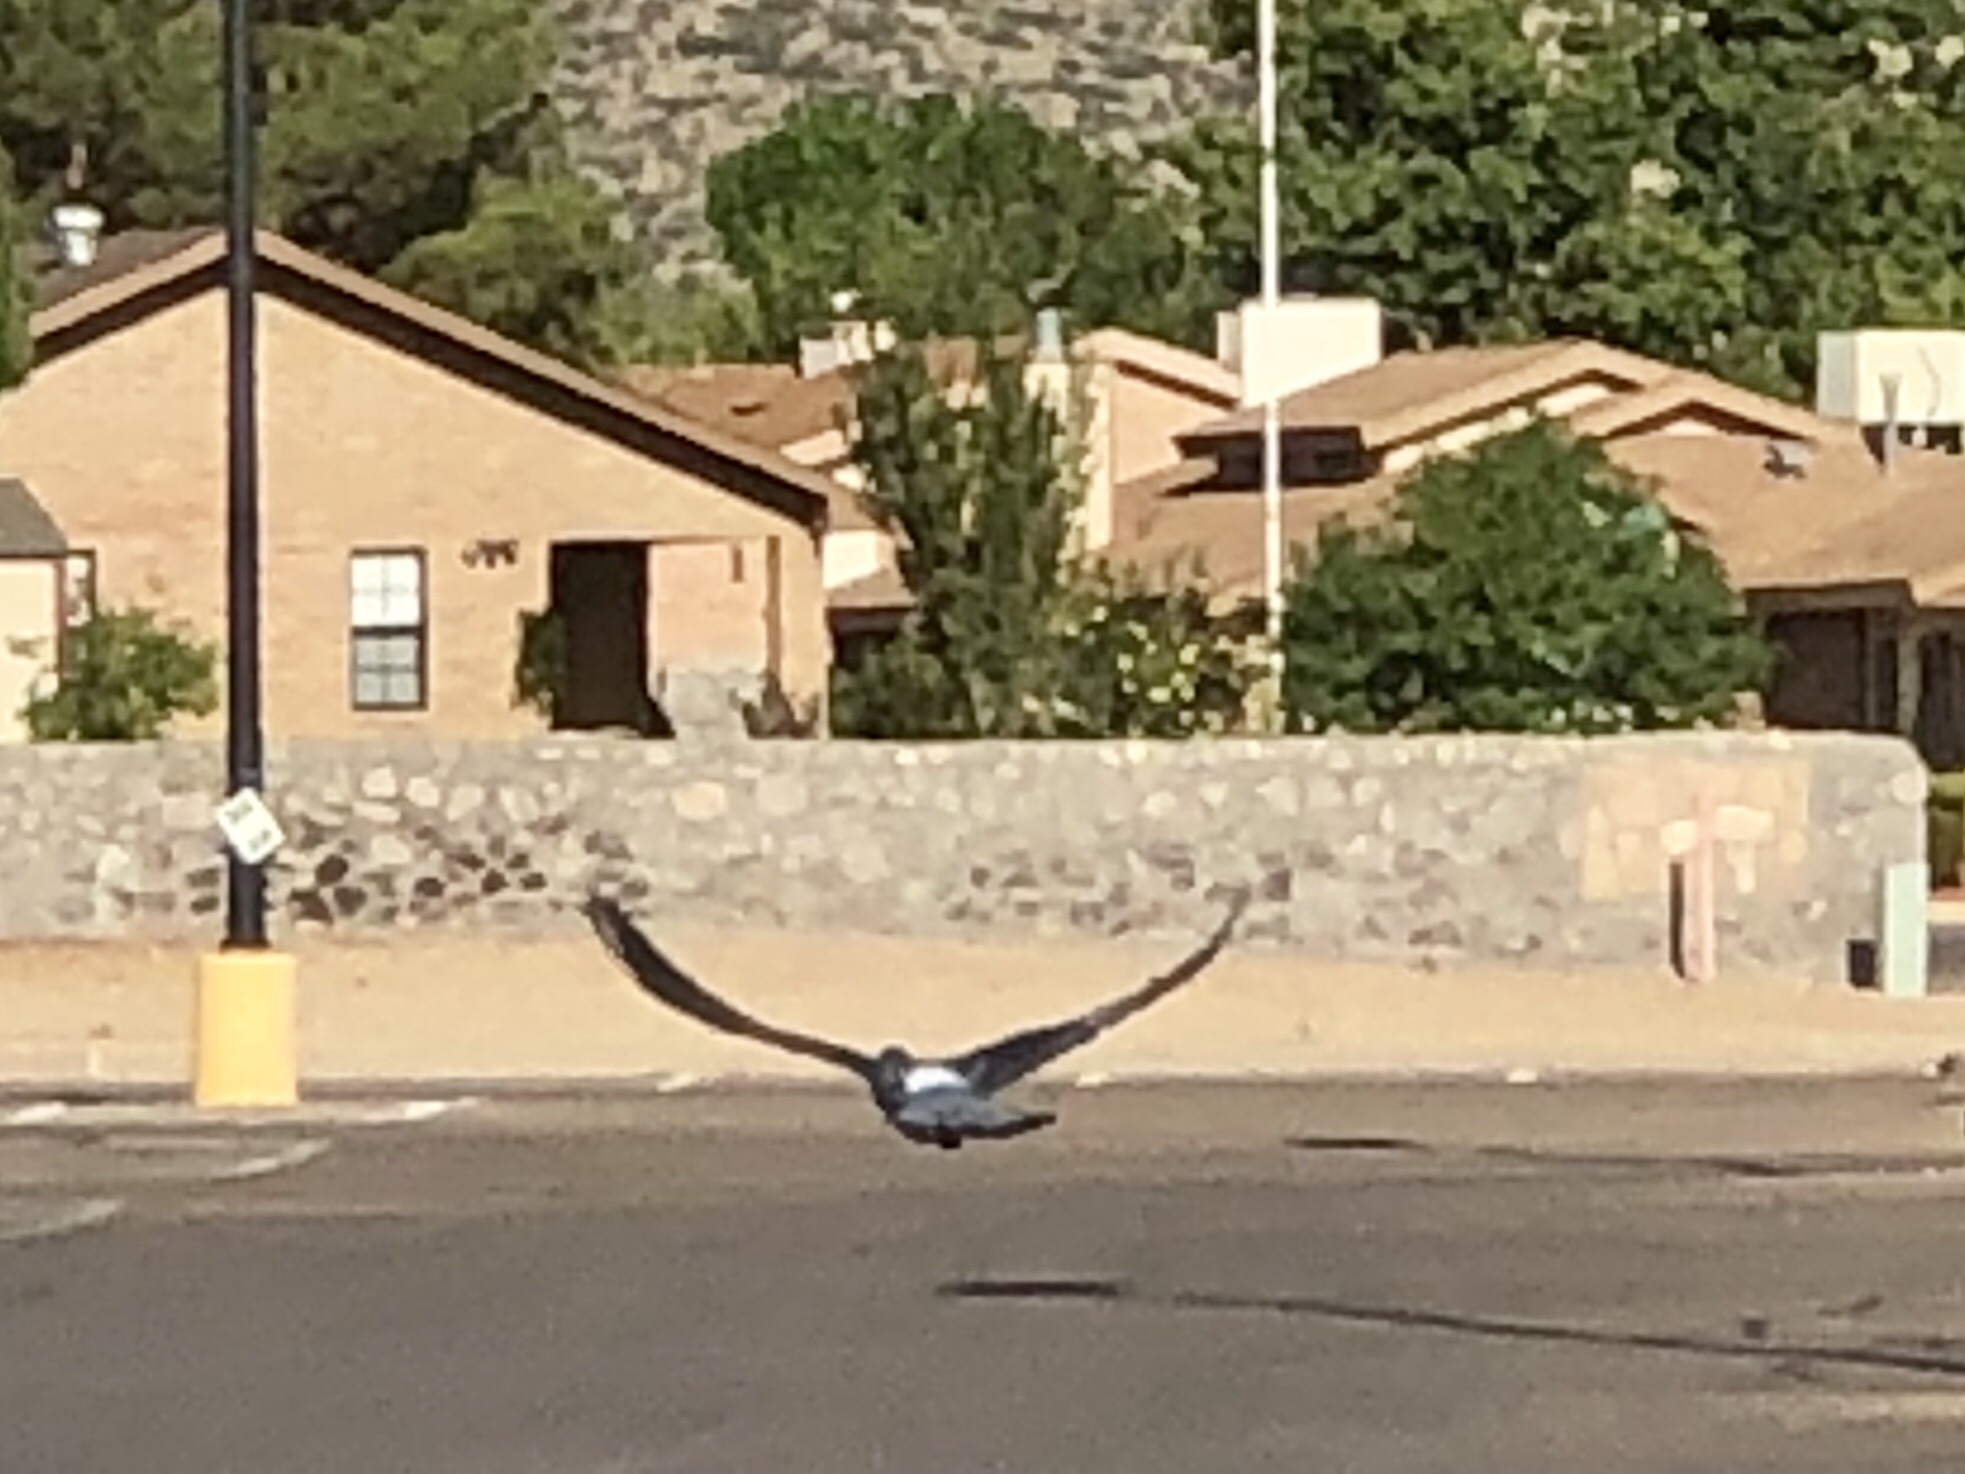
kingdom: Animalia
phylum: Chordata
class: Aves
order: Columbiformes
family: Columbidae
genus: Columba
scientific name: Columba livia
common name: Rock pigeon
